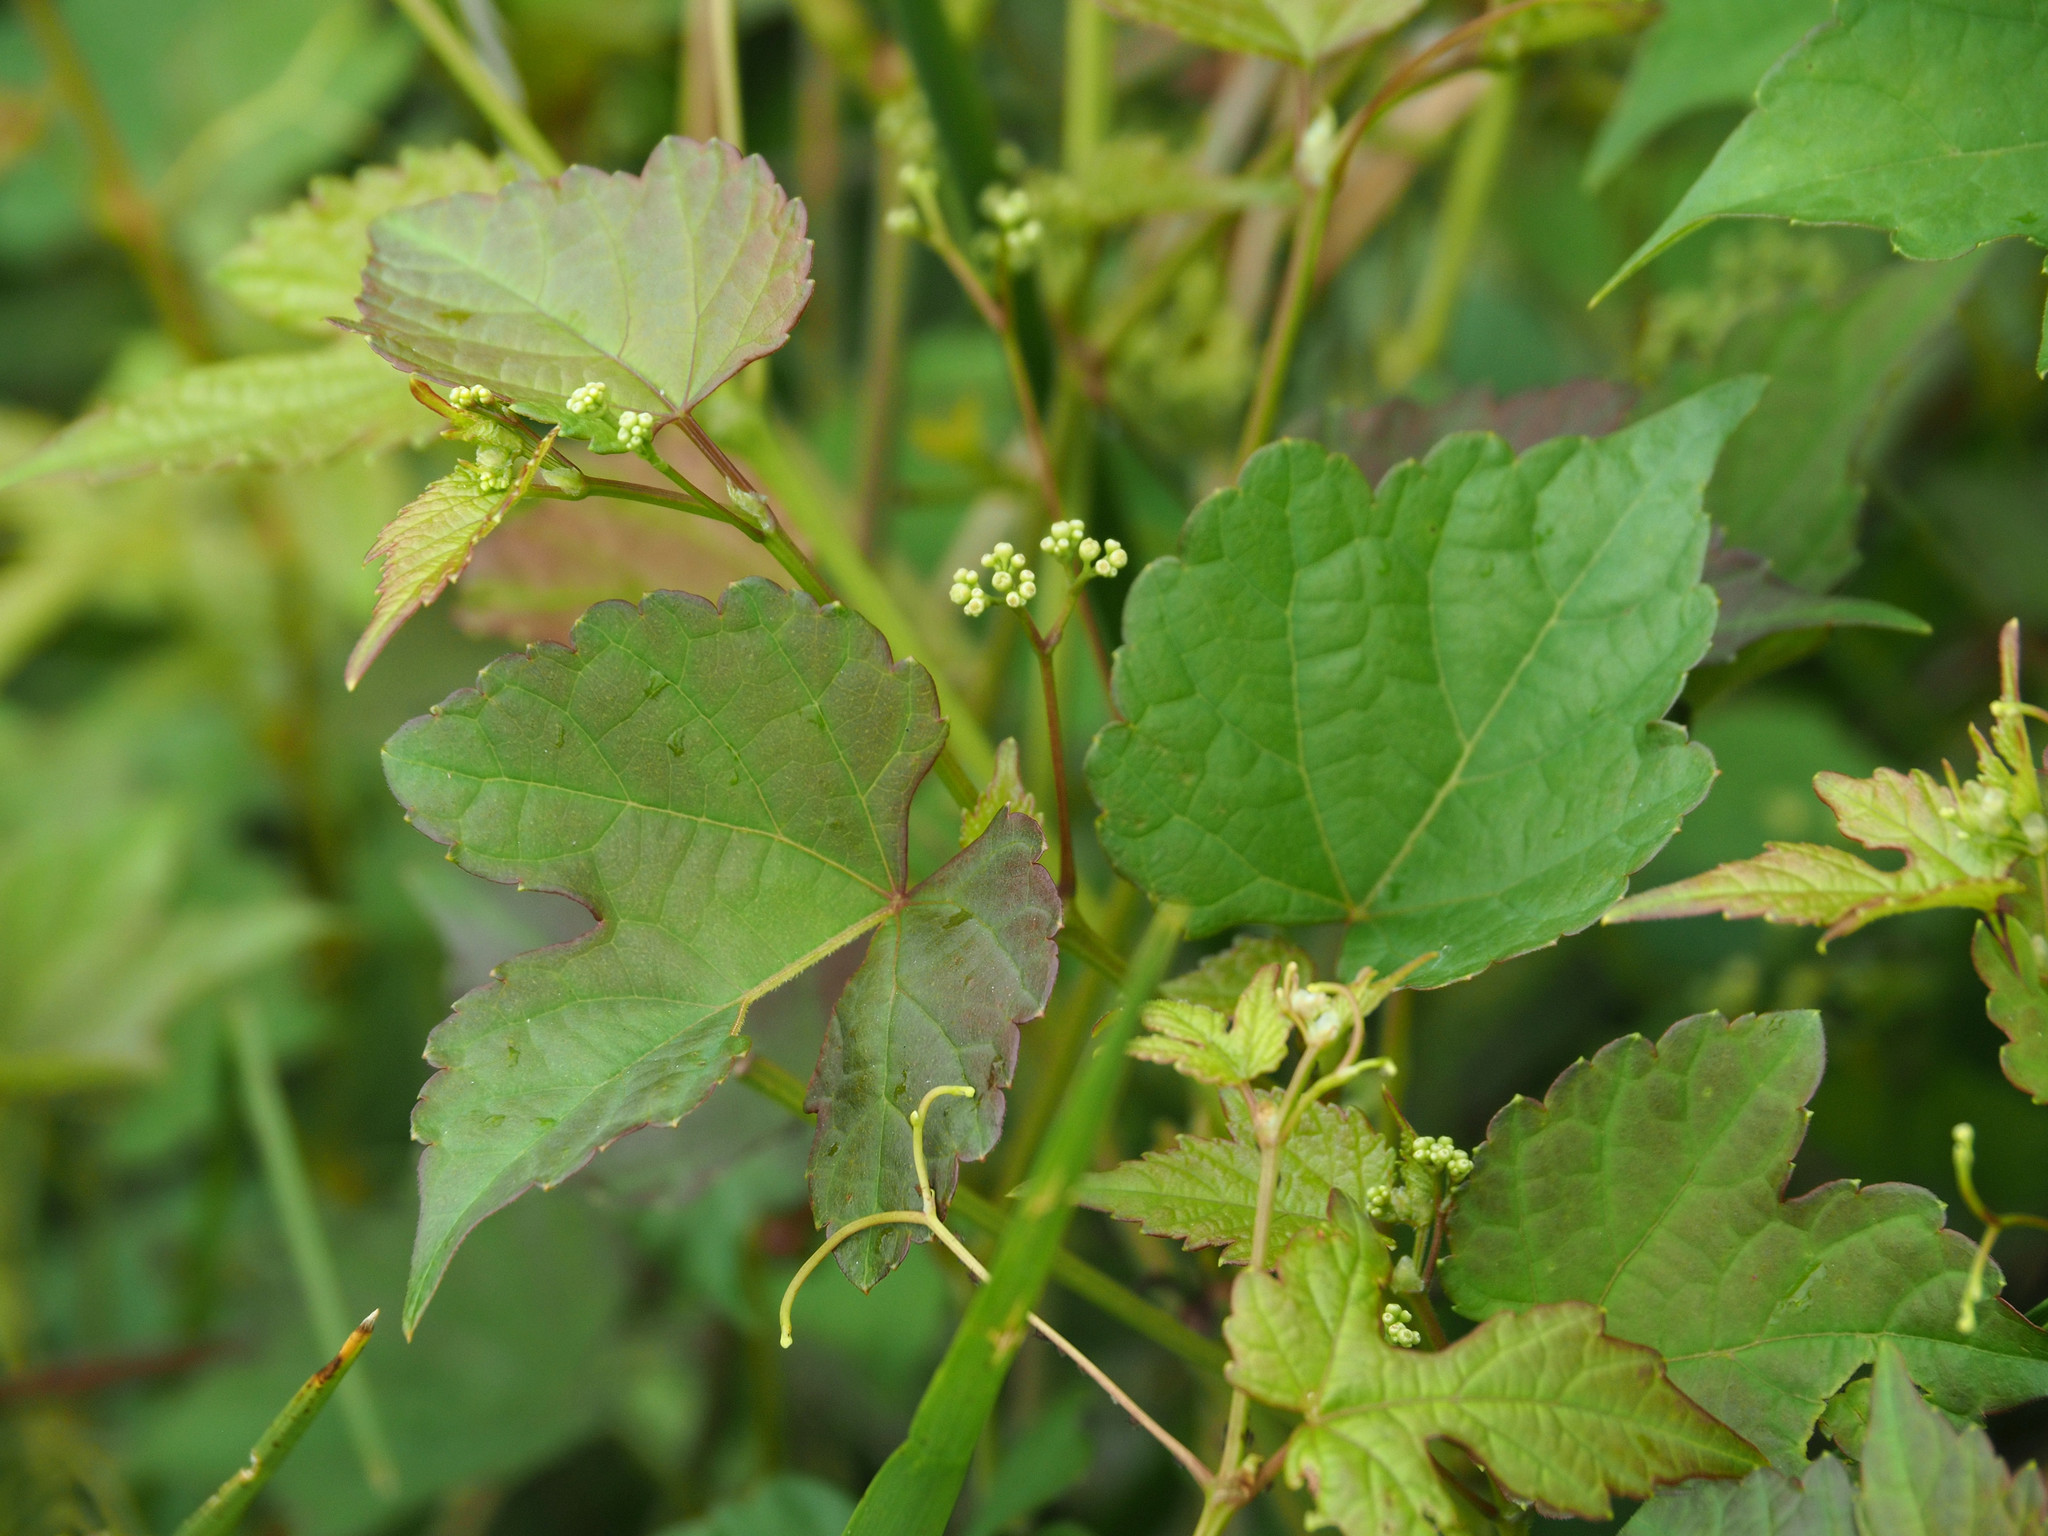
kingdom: Plantae
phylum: Tracheophyta
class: Magnoliopsida
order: Vitales
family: Vitaceae
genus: Ampelopsis
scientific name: Ampelopsis glandulosa
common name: Amur peppervine
